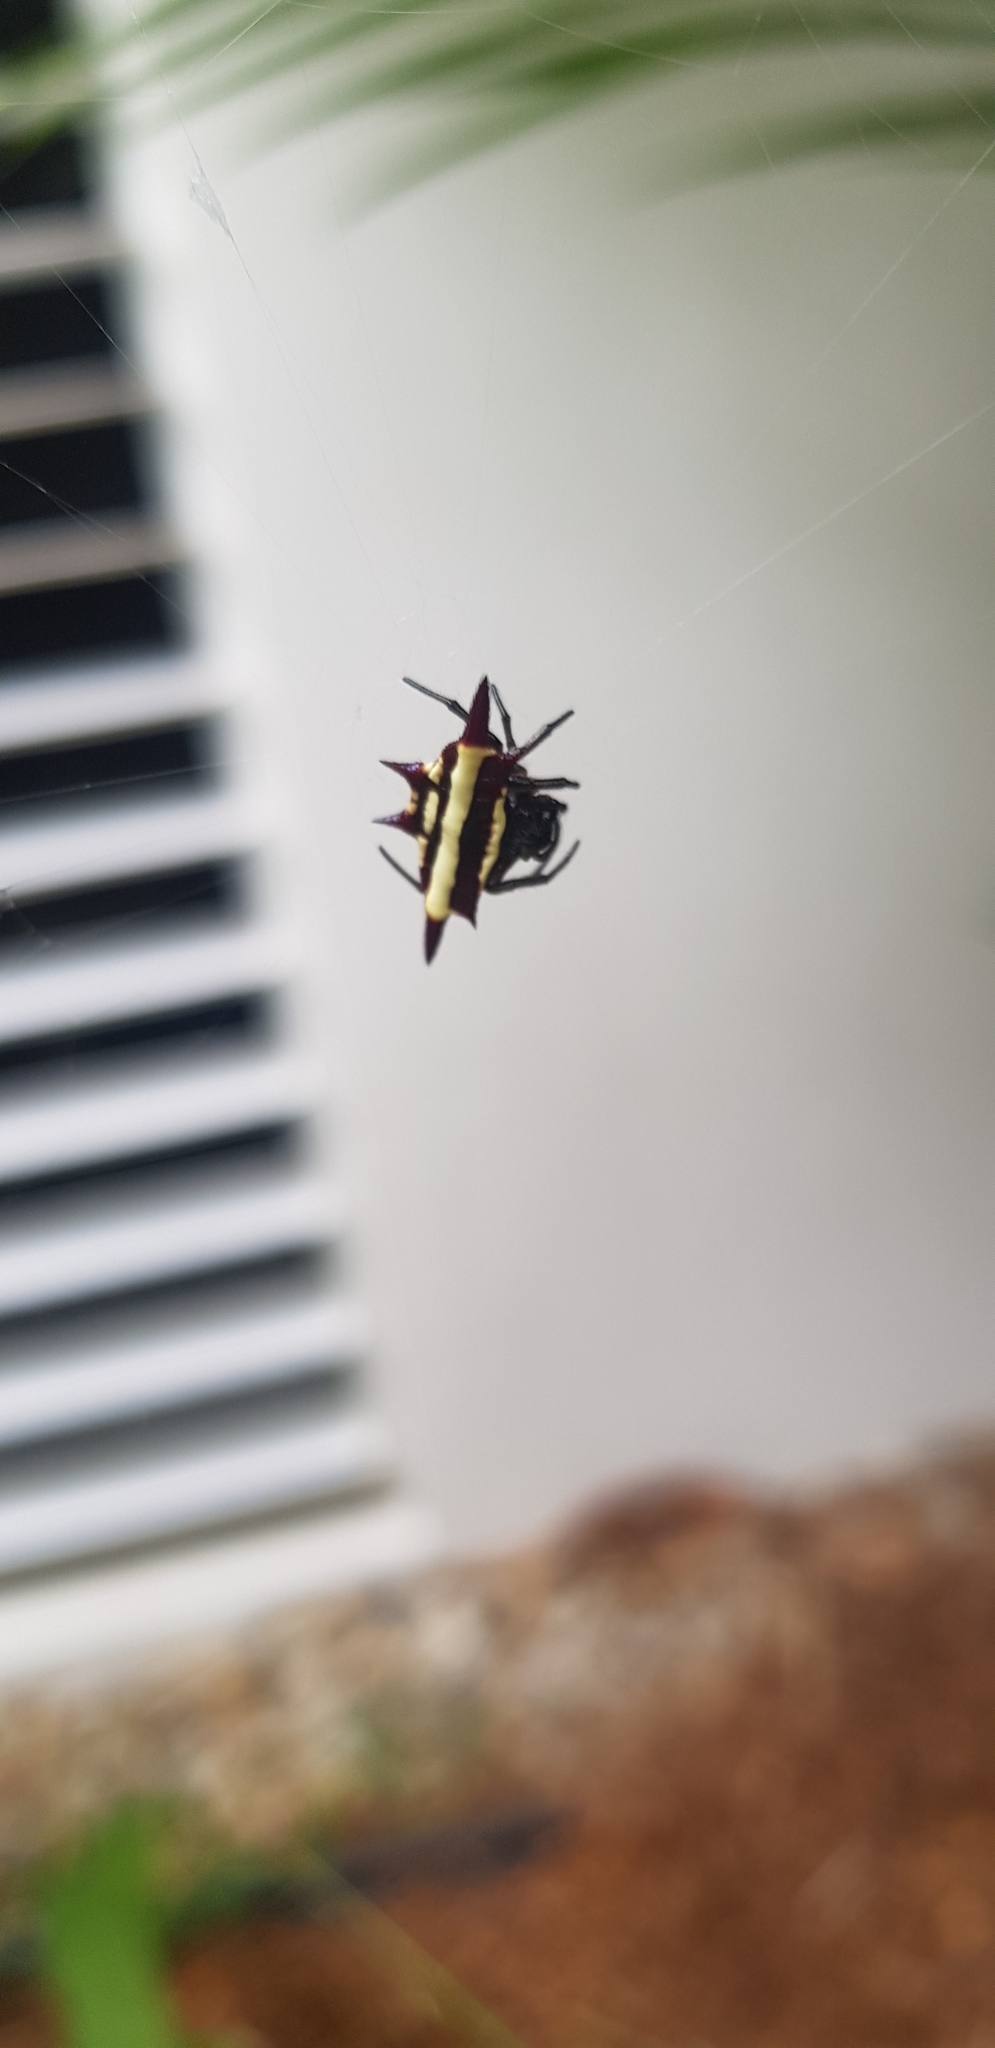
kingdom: Animalia
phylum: Arthropoda
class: Arachnida
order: Araneae
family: Araneidae
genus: Gasteracantha
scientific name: Gasteracantha fornicata
